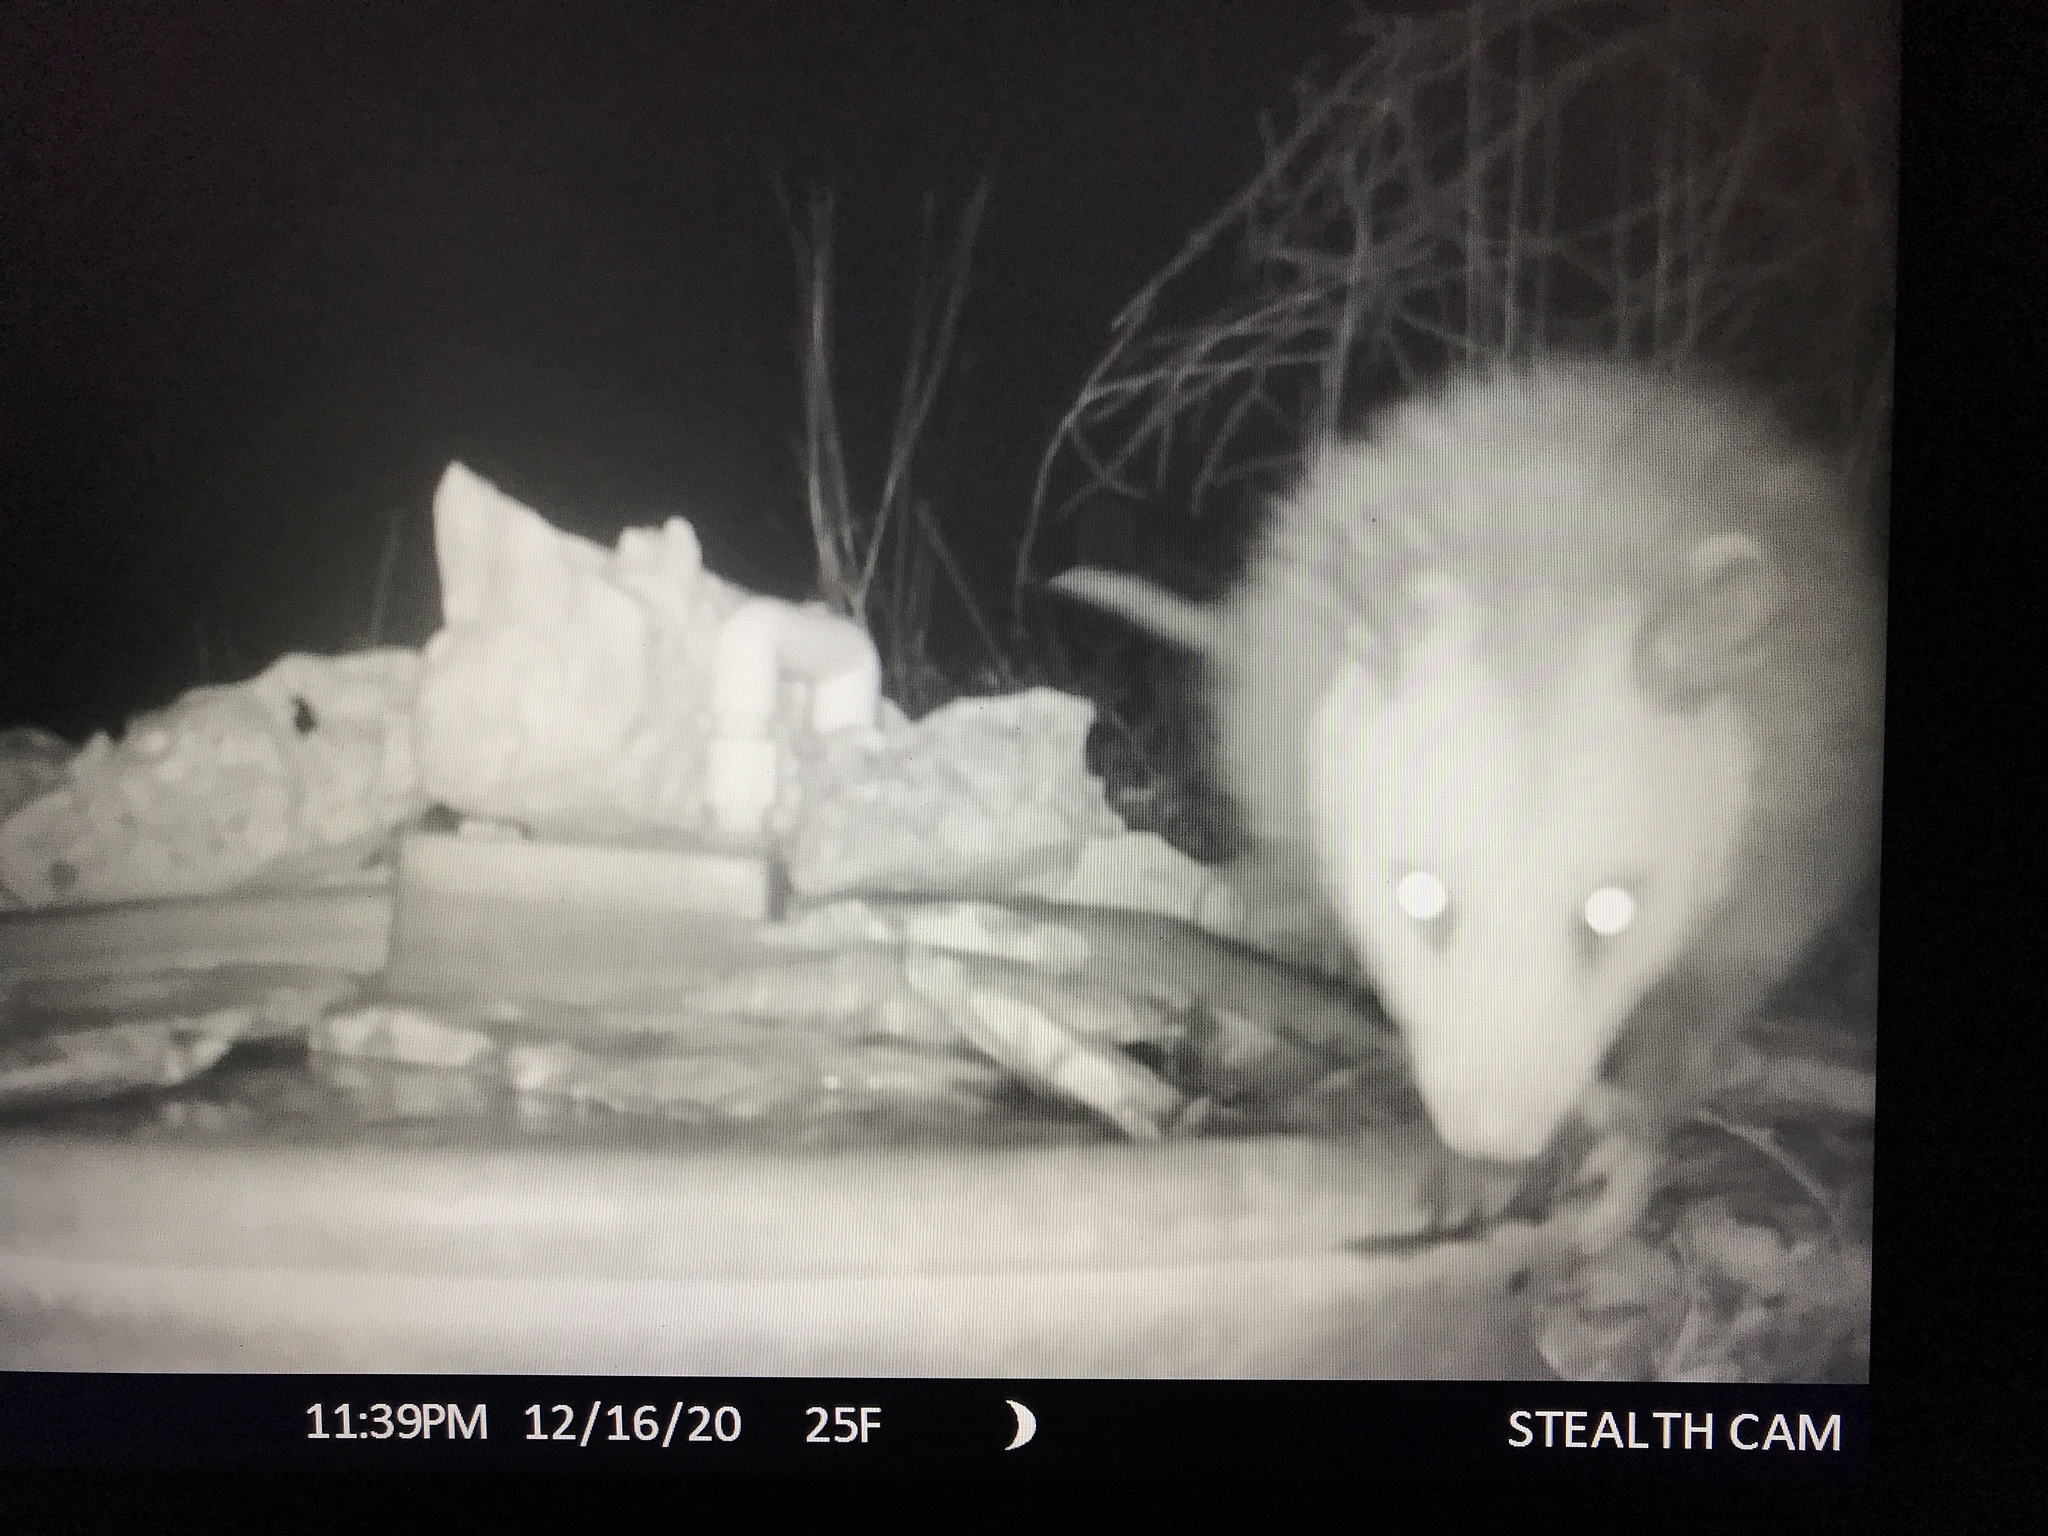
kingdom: Animalia
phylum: Chordata
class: Mammalia
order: Didelphimorphia
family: Didelphidae
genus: Didelphis
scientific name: Didelphis virginiana
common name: Virginia opossum
